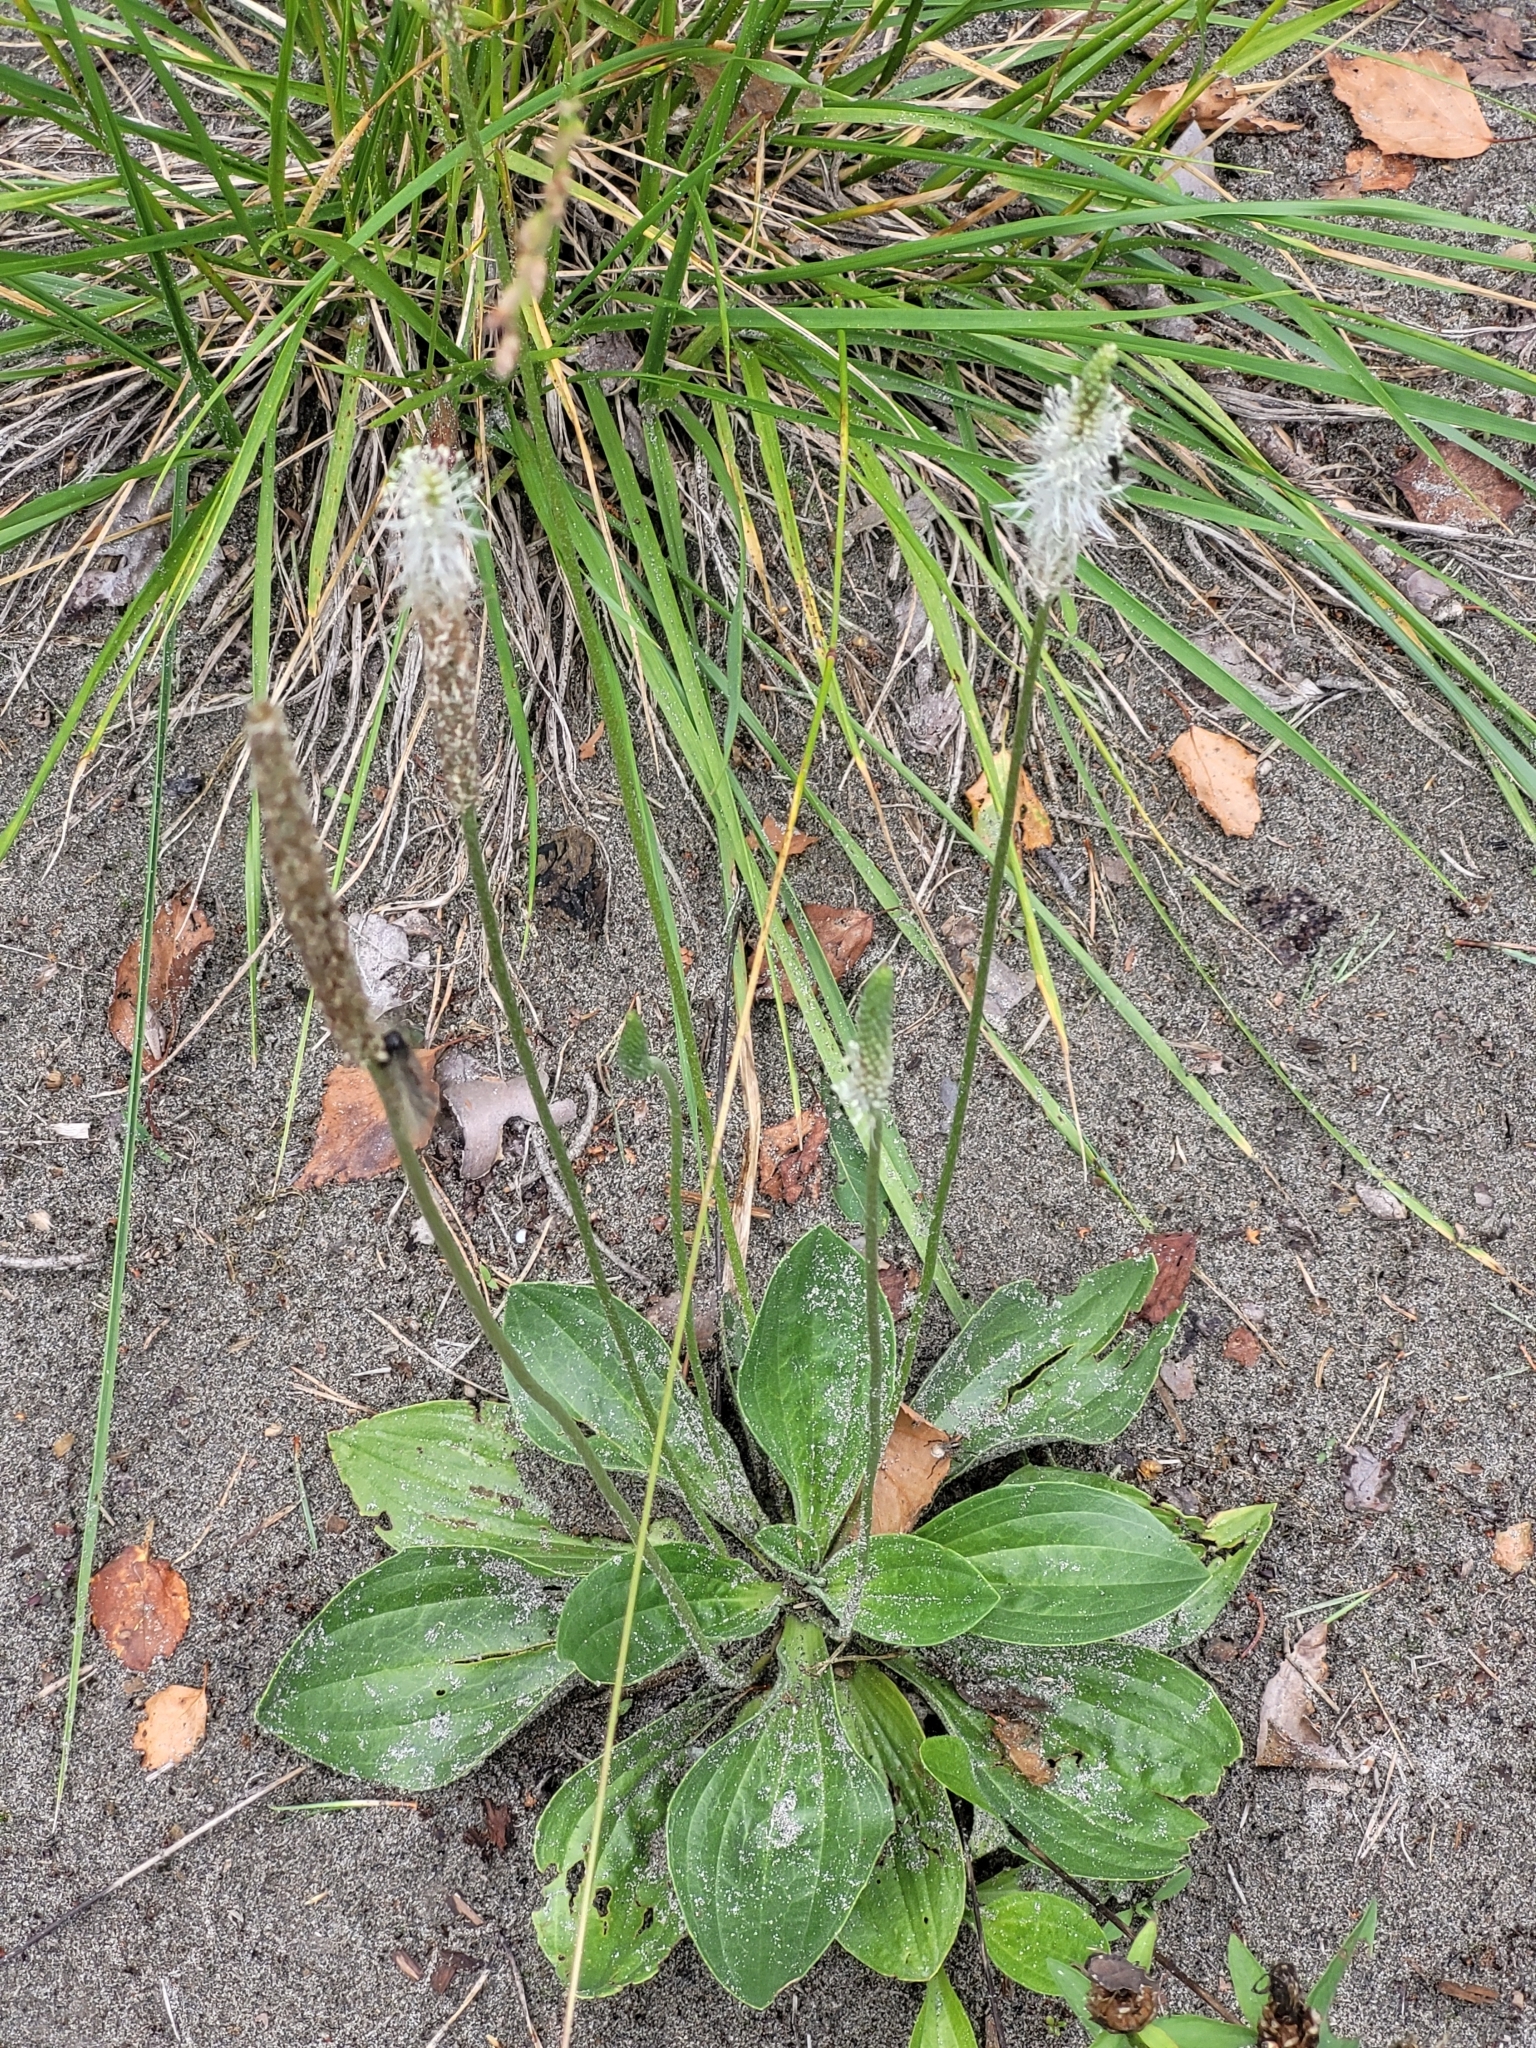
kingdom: Plantae
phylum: Tracheophyta
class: Magnoliopsida
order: Lamiales
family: Plantaginaceae
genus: Plantago
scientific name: Plantago media
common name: Hoary plantain
